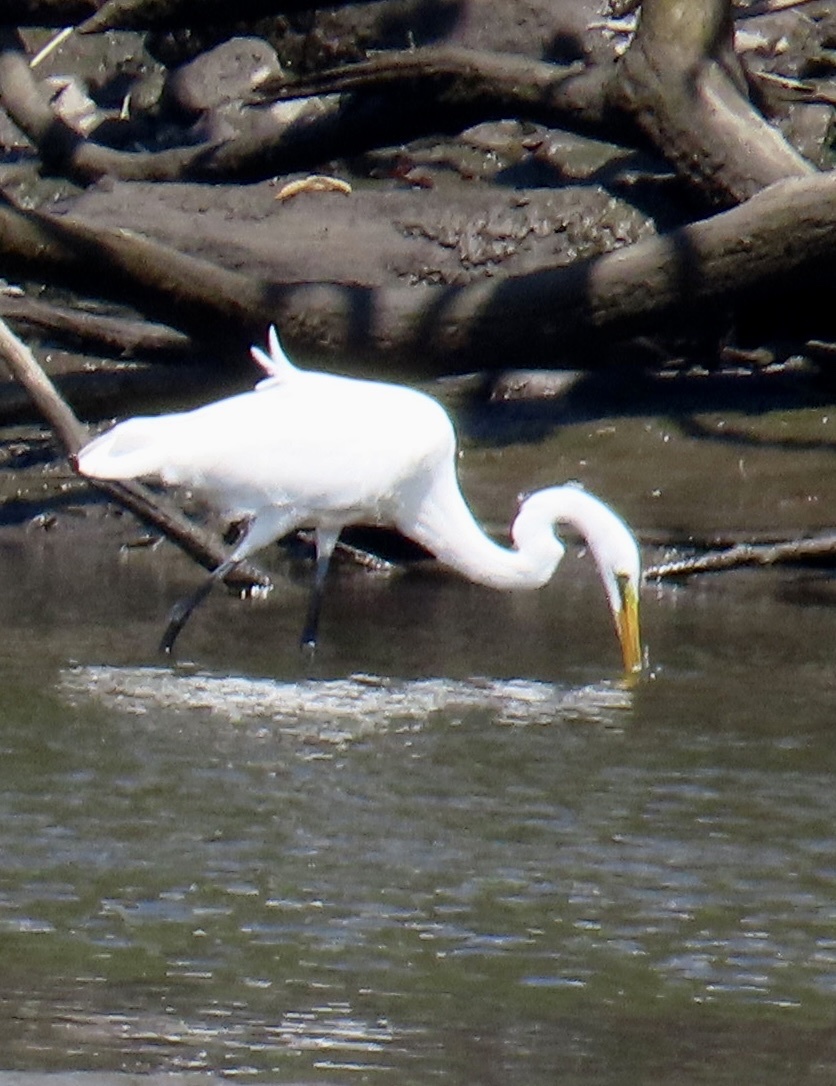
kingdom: Animalia
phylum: Chordata
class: Aves
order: Pelecaniformes
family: Ardeidae
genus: Ardea
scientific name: Ardea alba
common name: Great egret
